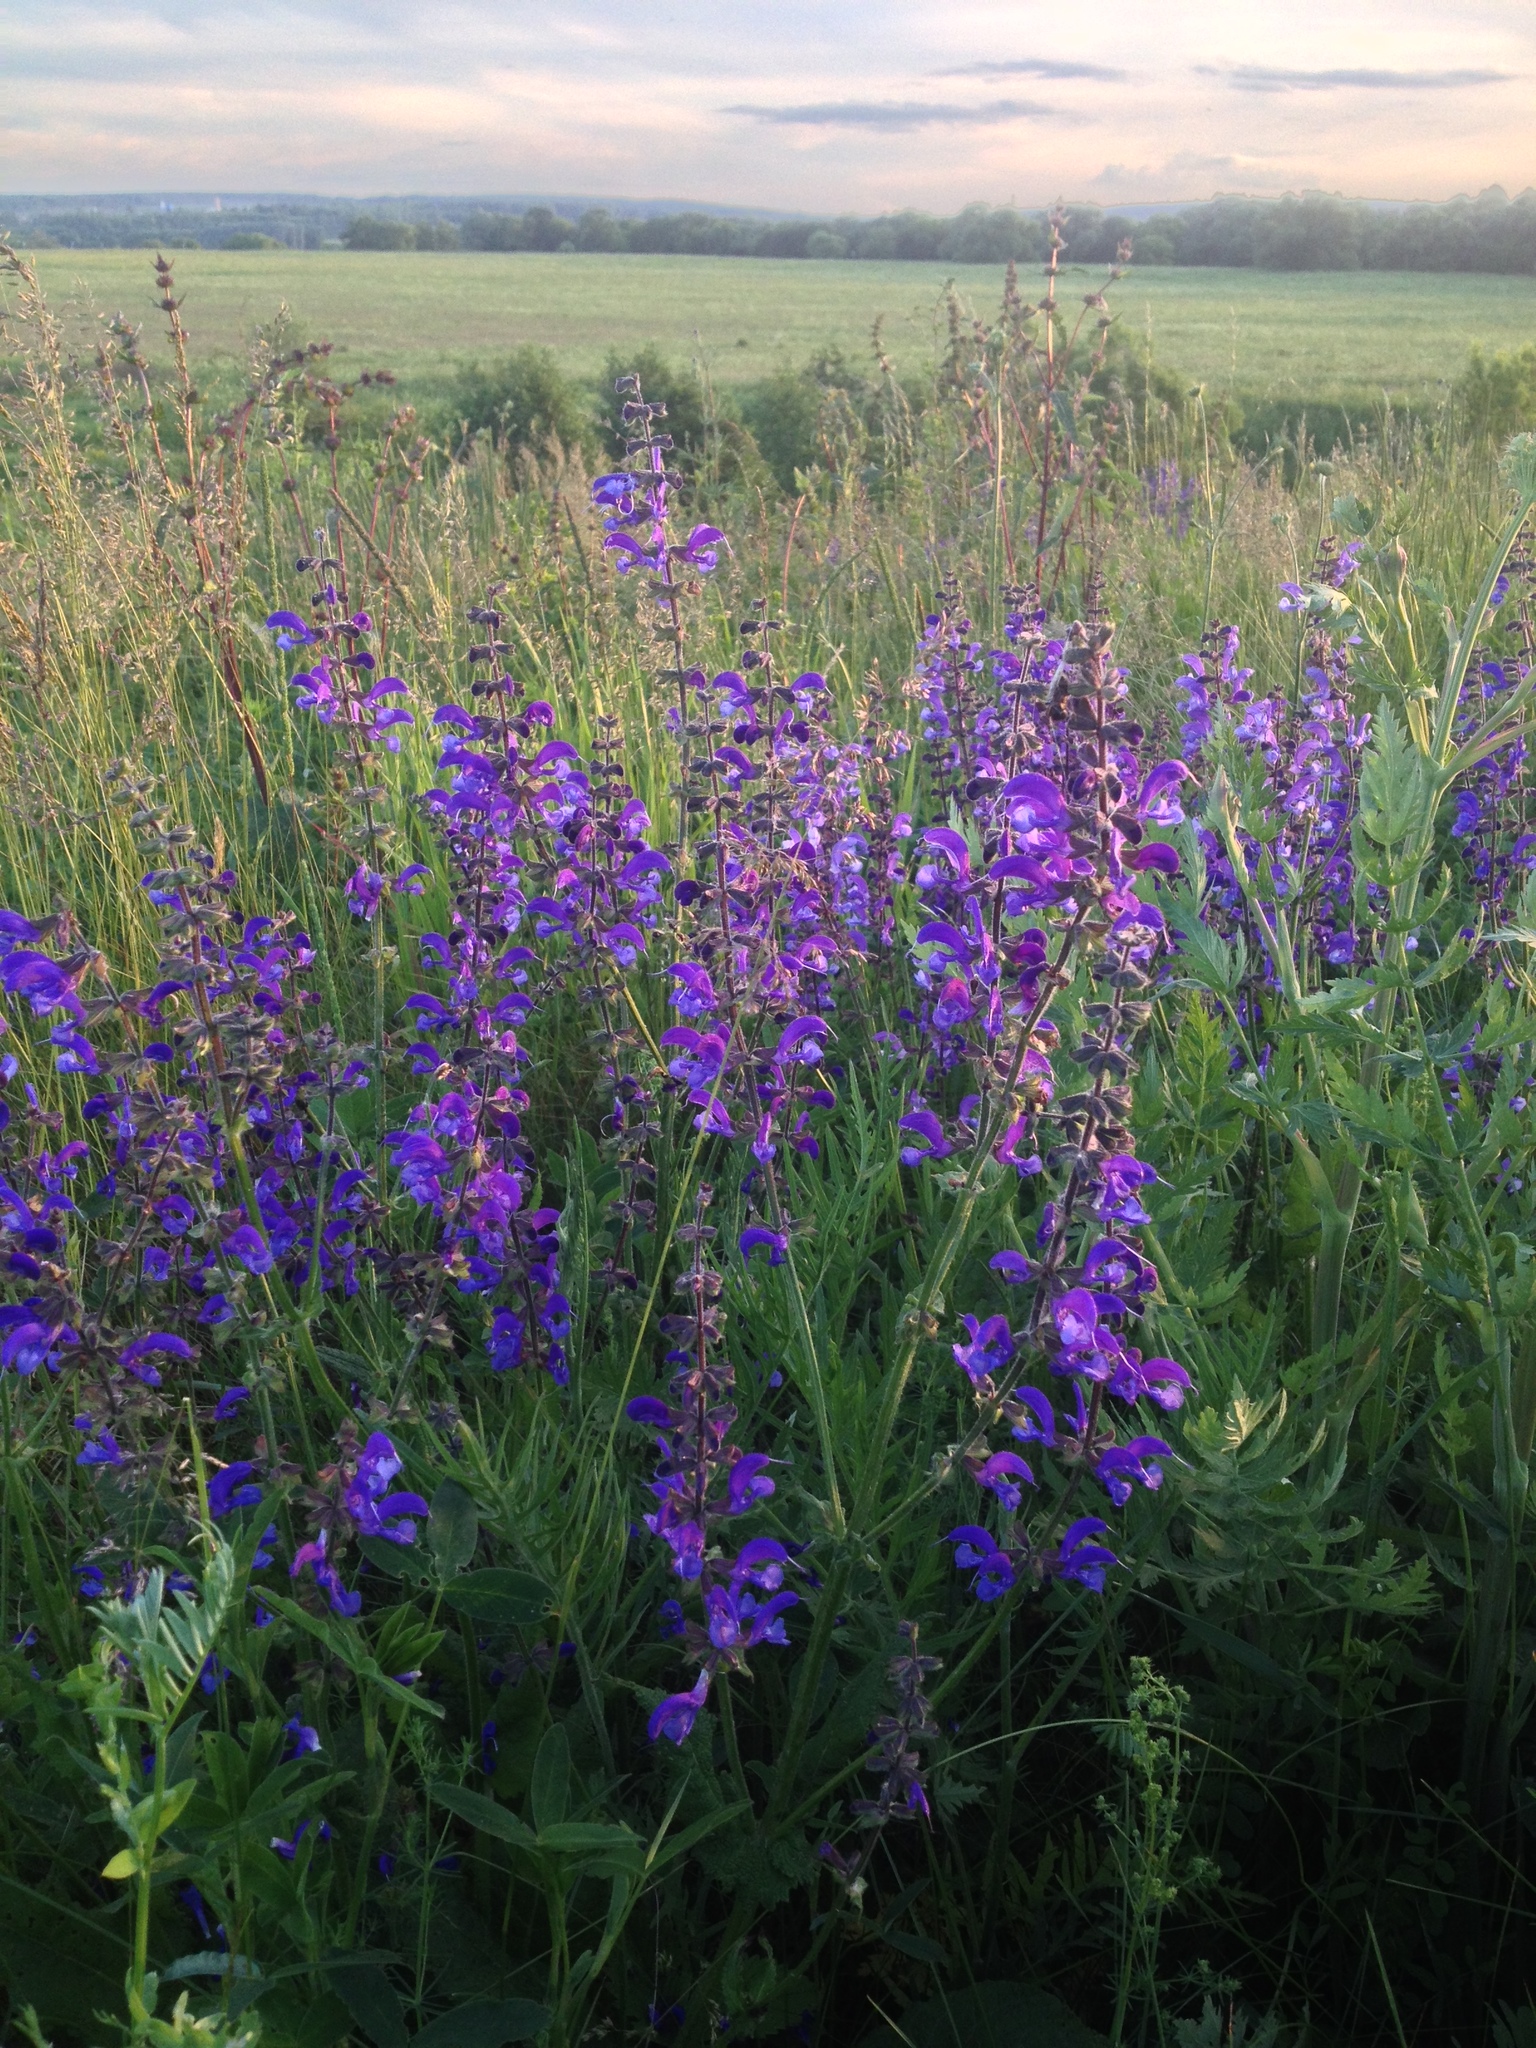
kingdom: Plantae
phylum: Tracheophyta
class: Magnoliopsida
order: Lamiales
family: Lamiaceae
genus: Salvia
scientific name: Salvia pratensis
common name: Meadow sage
